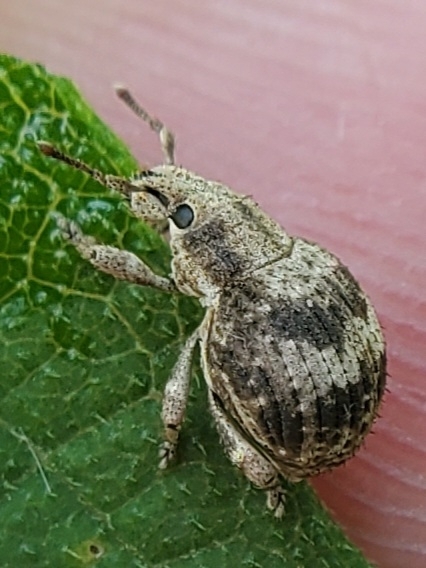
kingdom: Animalia
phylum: Arthropoda
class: Insecta
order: Coleoptera
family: Curculionidae
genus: Pseudocneorhinus
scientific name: Pseudocneorhinus bifasciatus
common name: Two-banded japanese weevil
